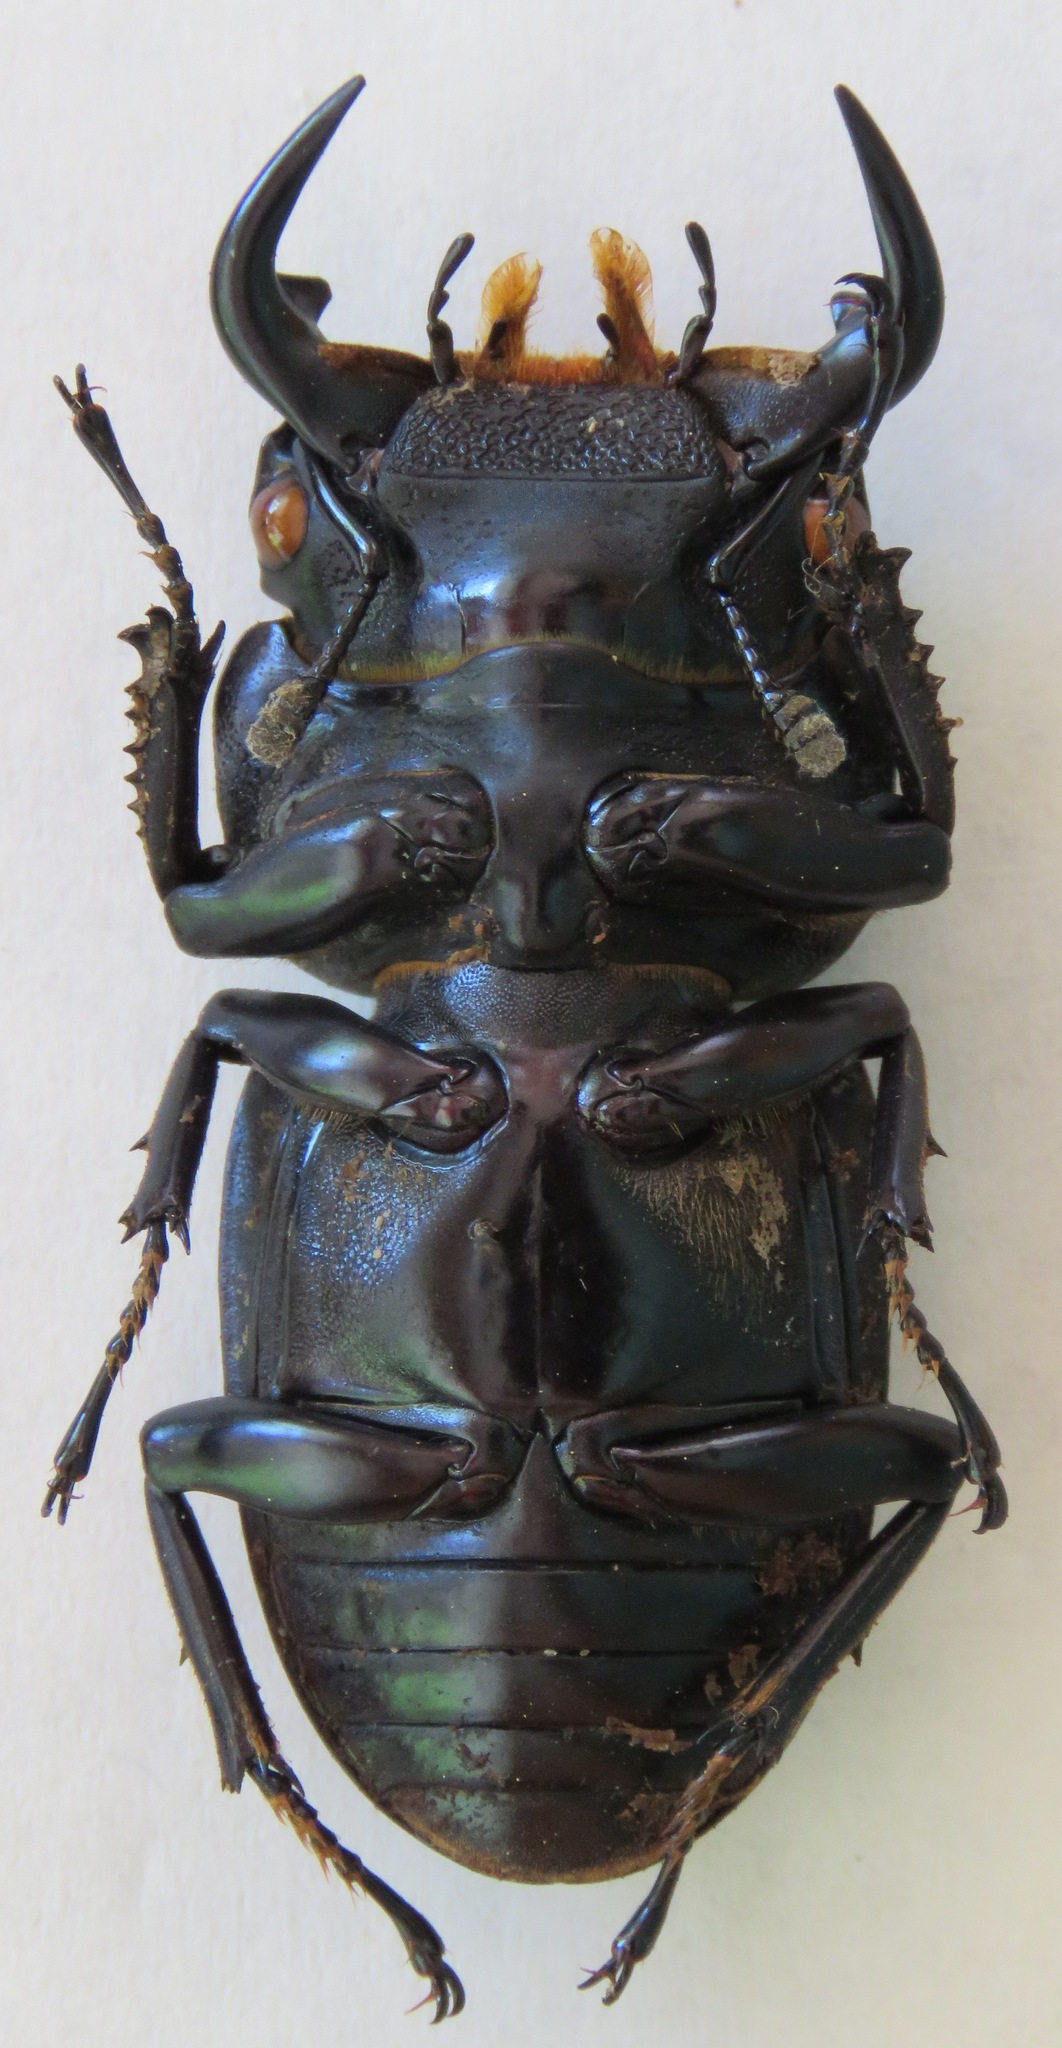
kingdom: Animalia
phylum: Arthropoda
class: Insecta
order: Coleoptera
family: Lucanidae
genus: Dorcus
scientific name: Dorcus antaeus
